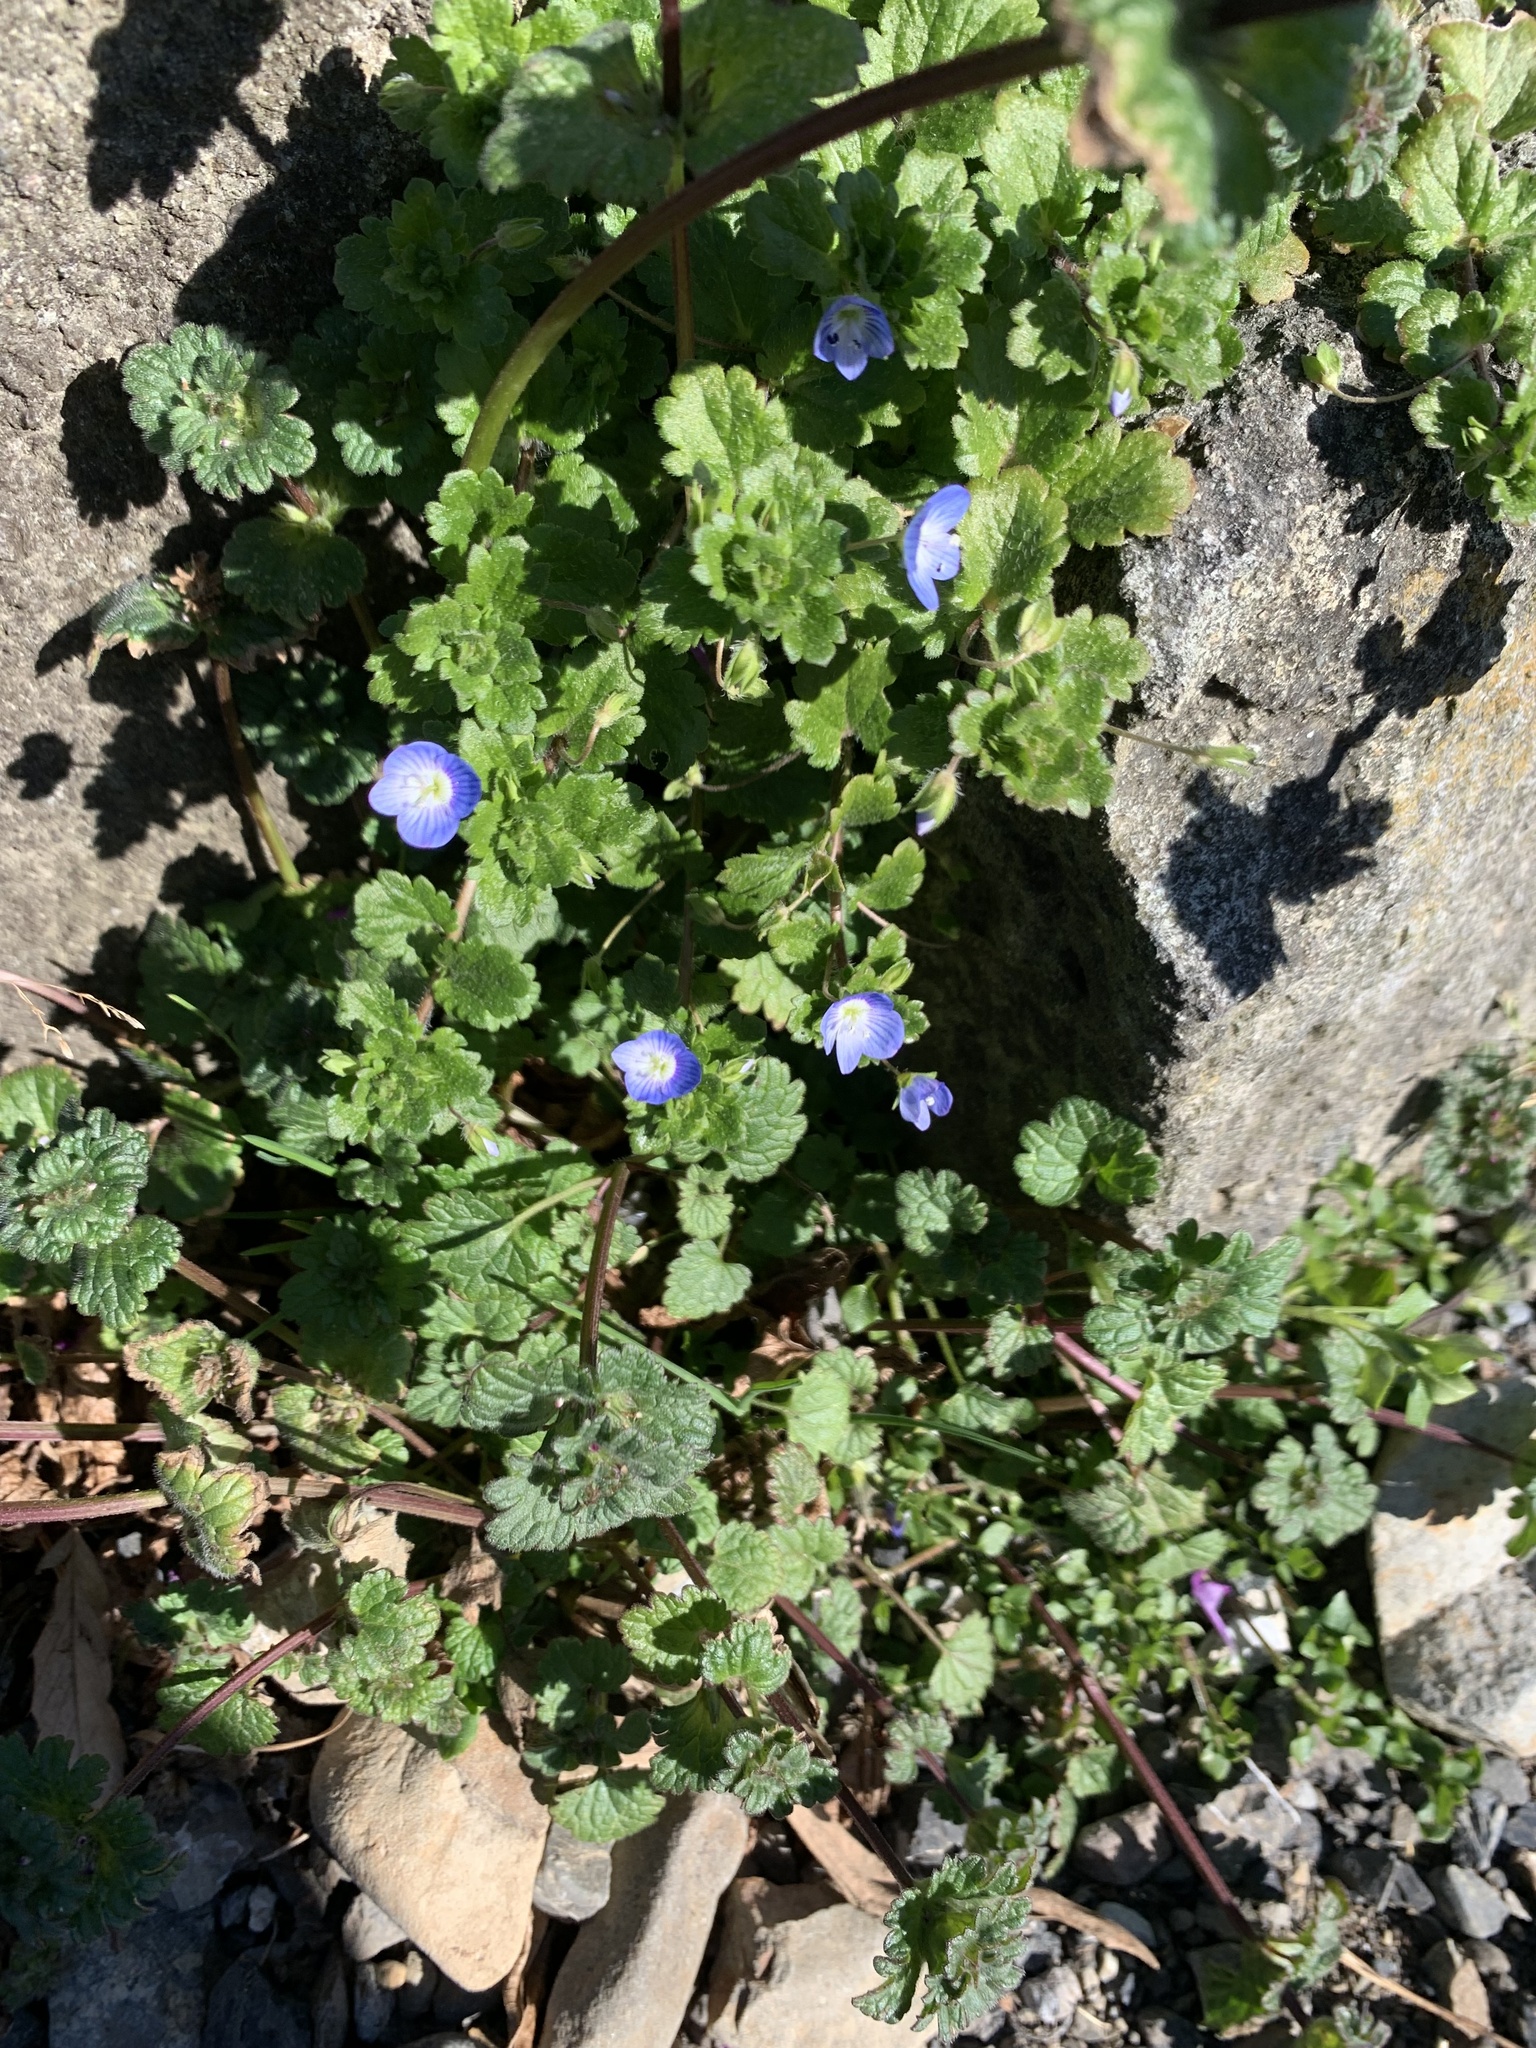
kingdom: Plantae
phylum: Tracheophyta
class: Magnoliopsida
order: Lamiales
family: Plantaginaceae
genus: Veronica
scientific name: Veronica persica
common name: Common field-speedwell
